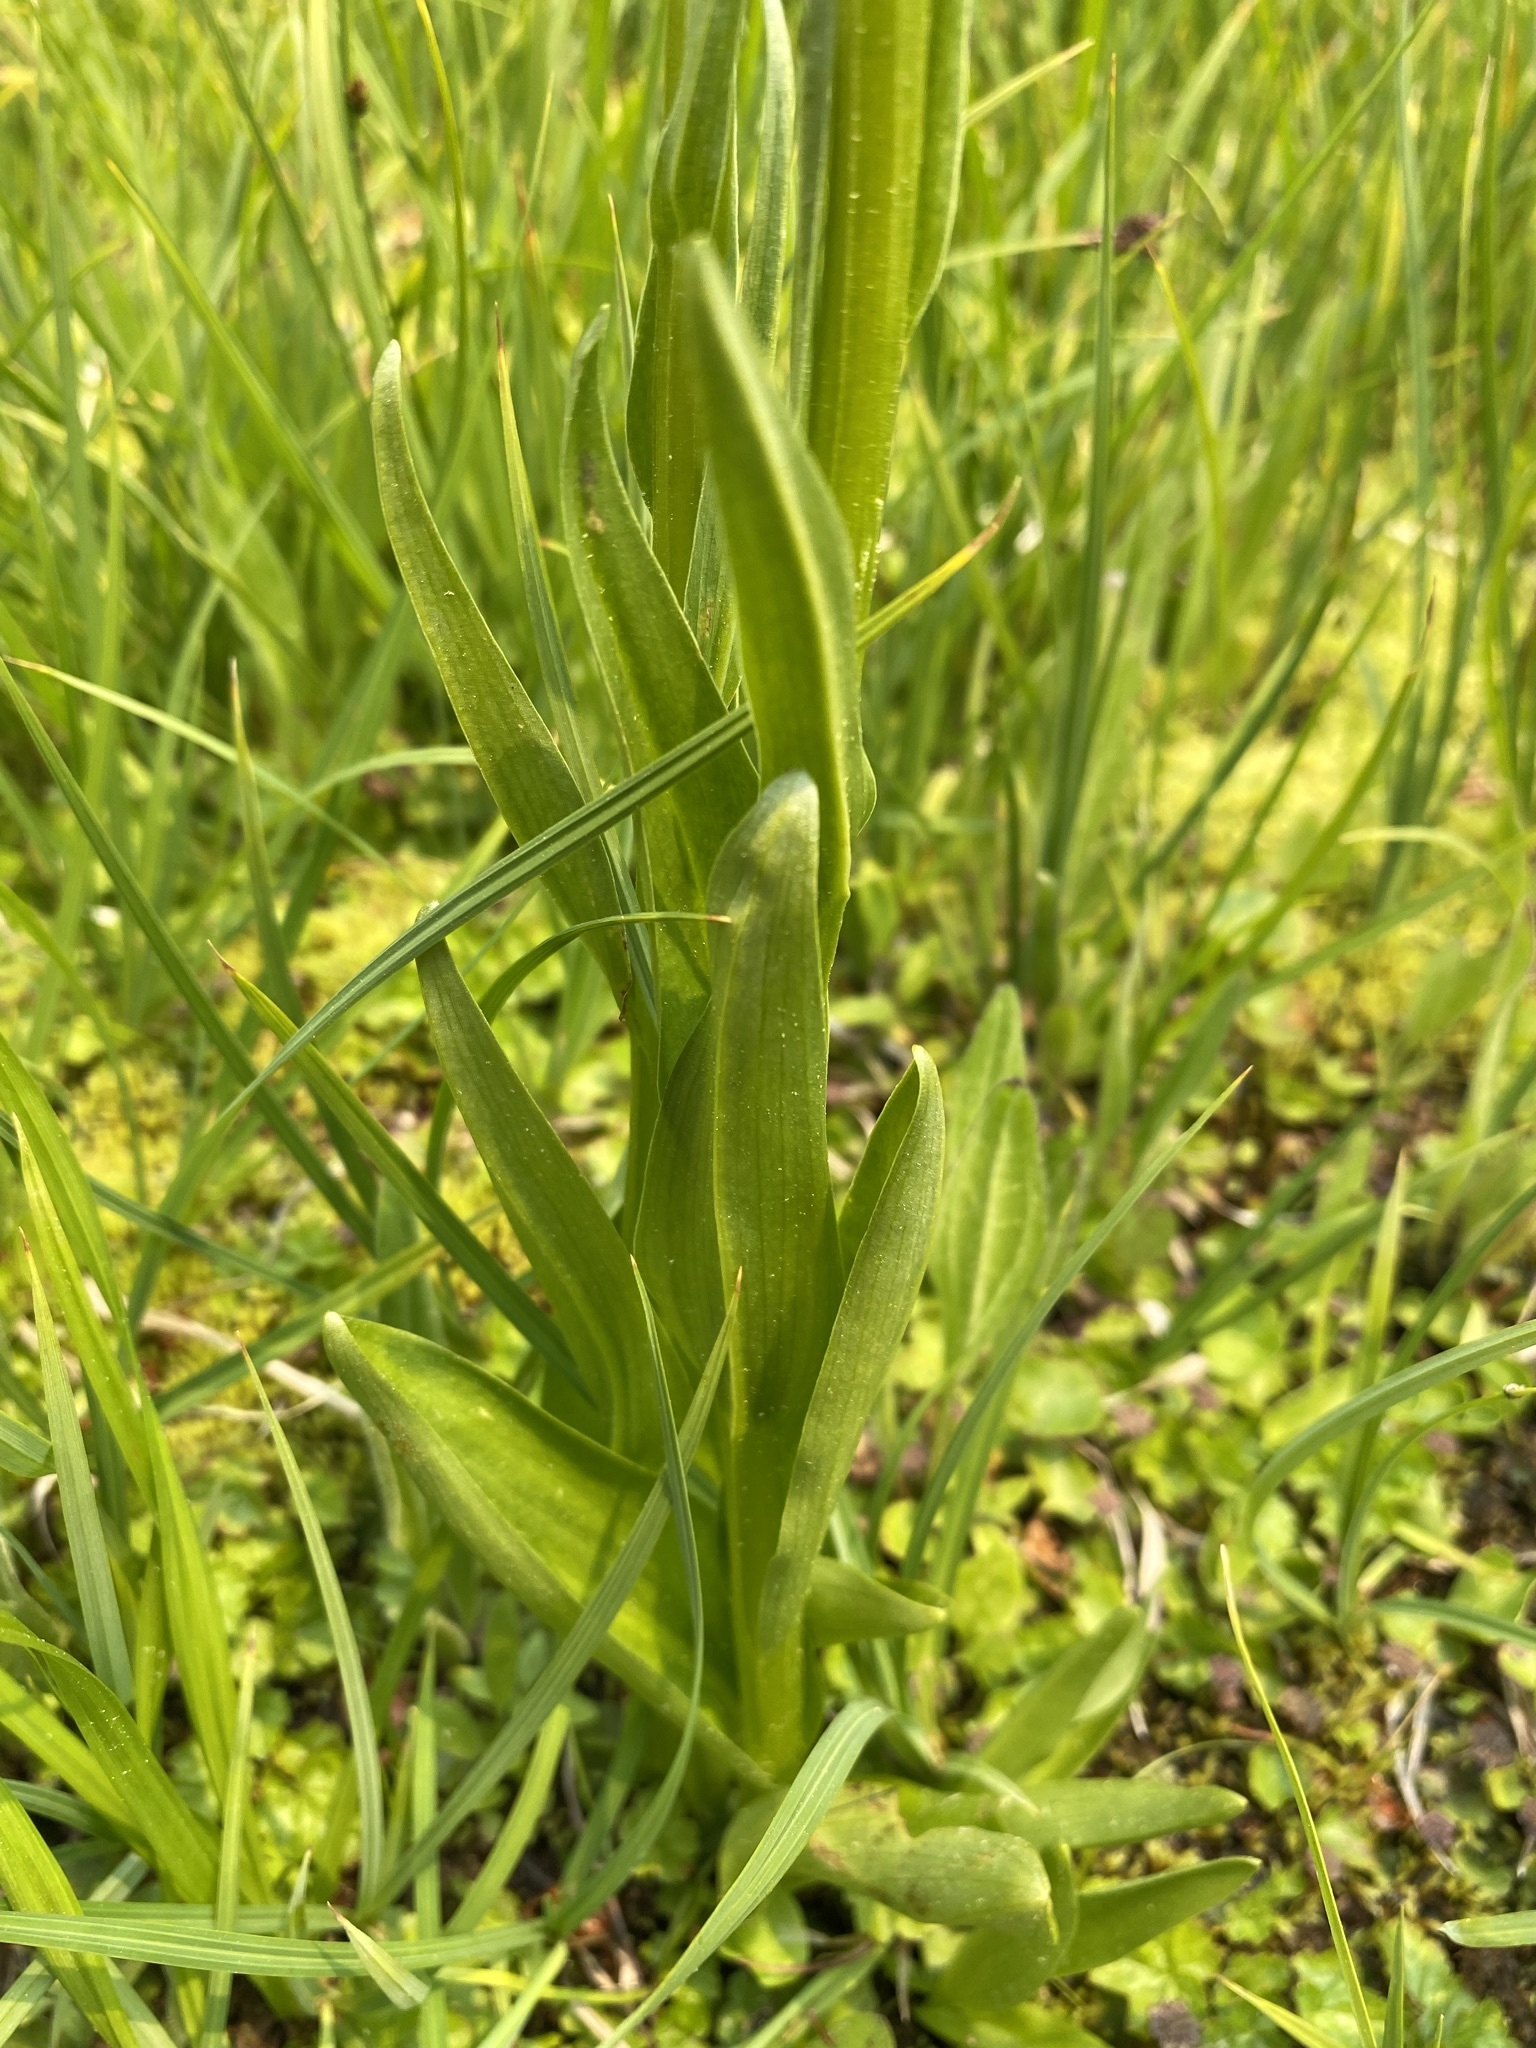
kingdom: Plantae
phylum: Tracheophyta
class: Liliopsida
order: Asparagales
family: Orchidaceae
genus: Platanthera
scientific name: Platanthera stricta
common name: Slender bog orchid
